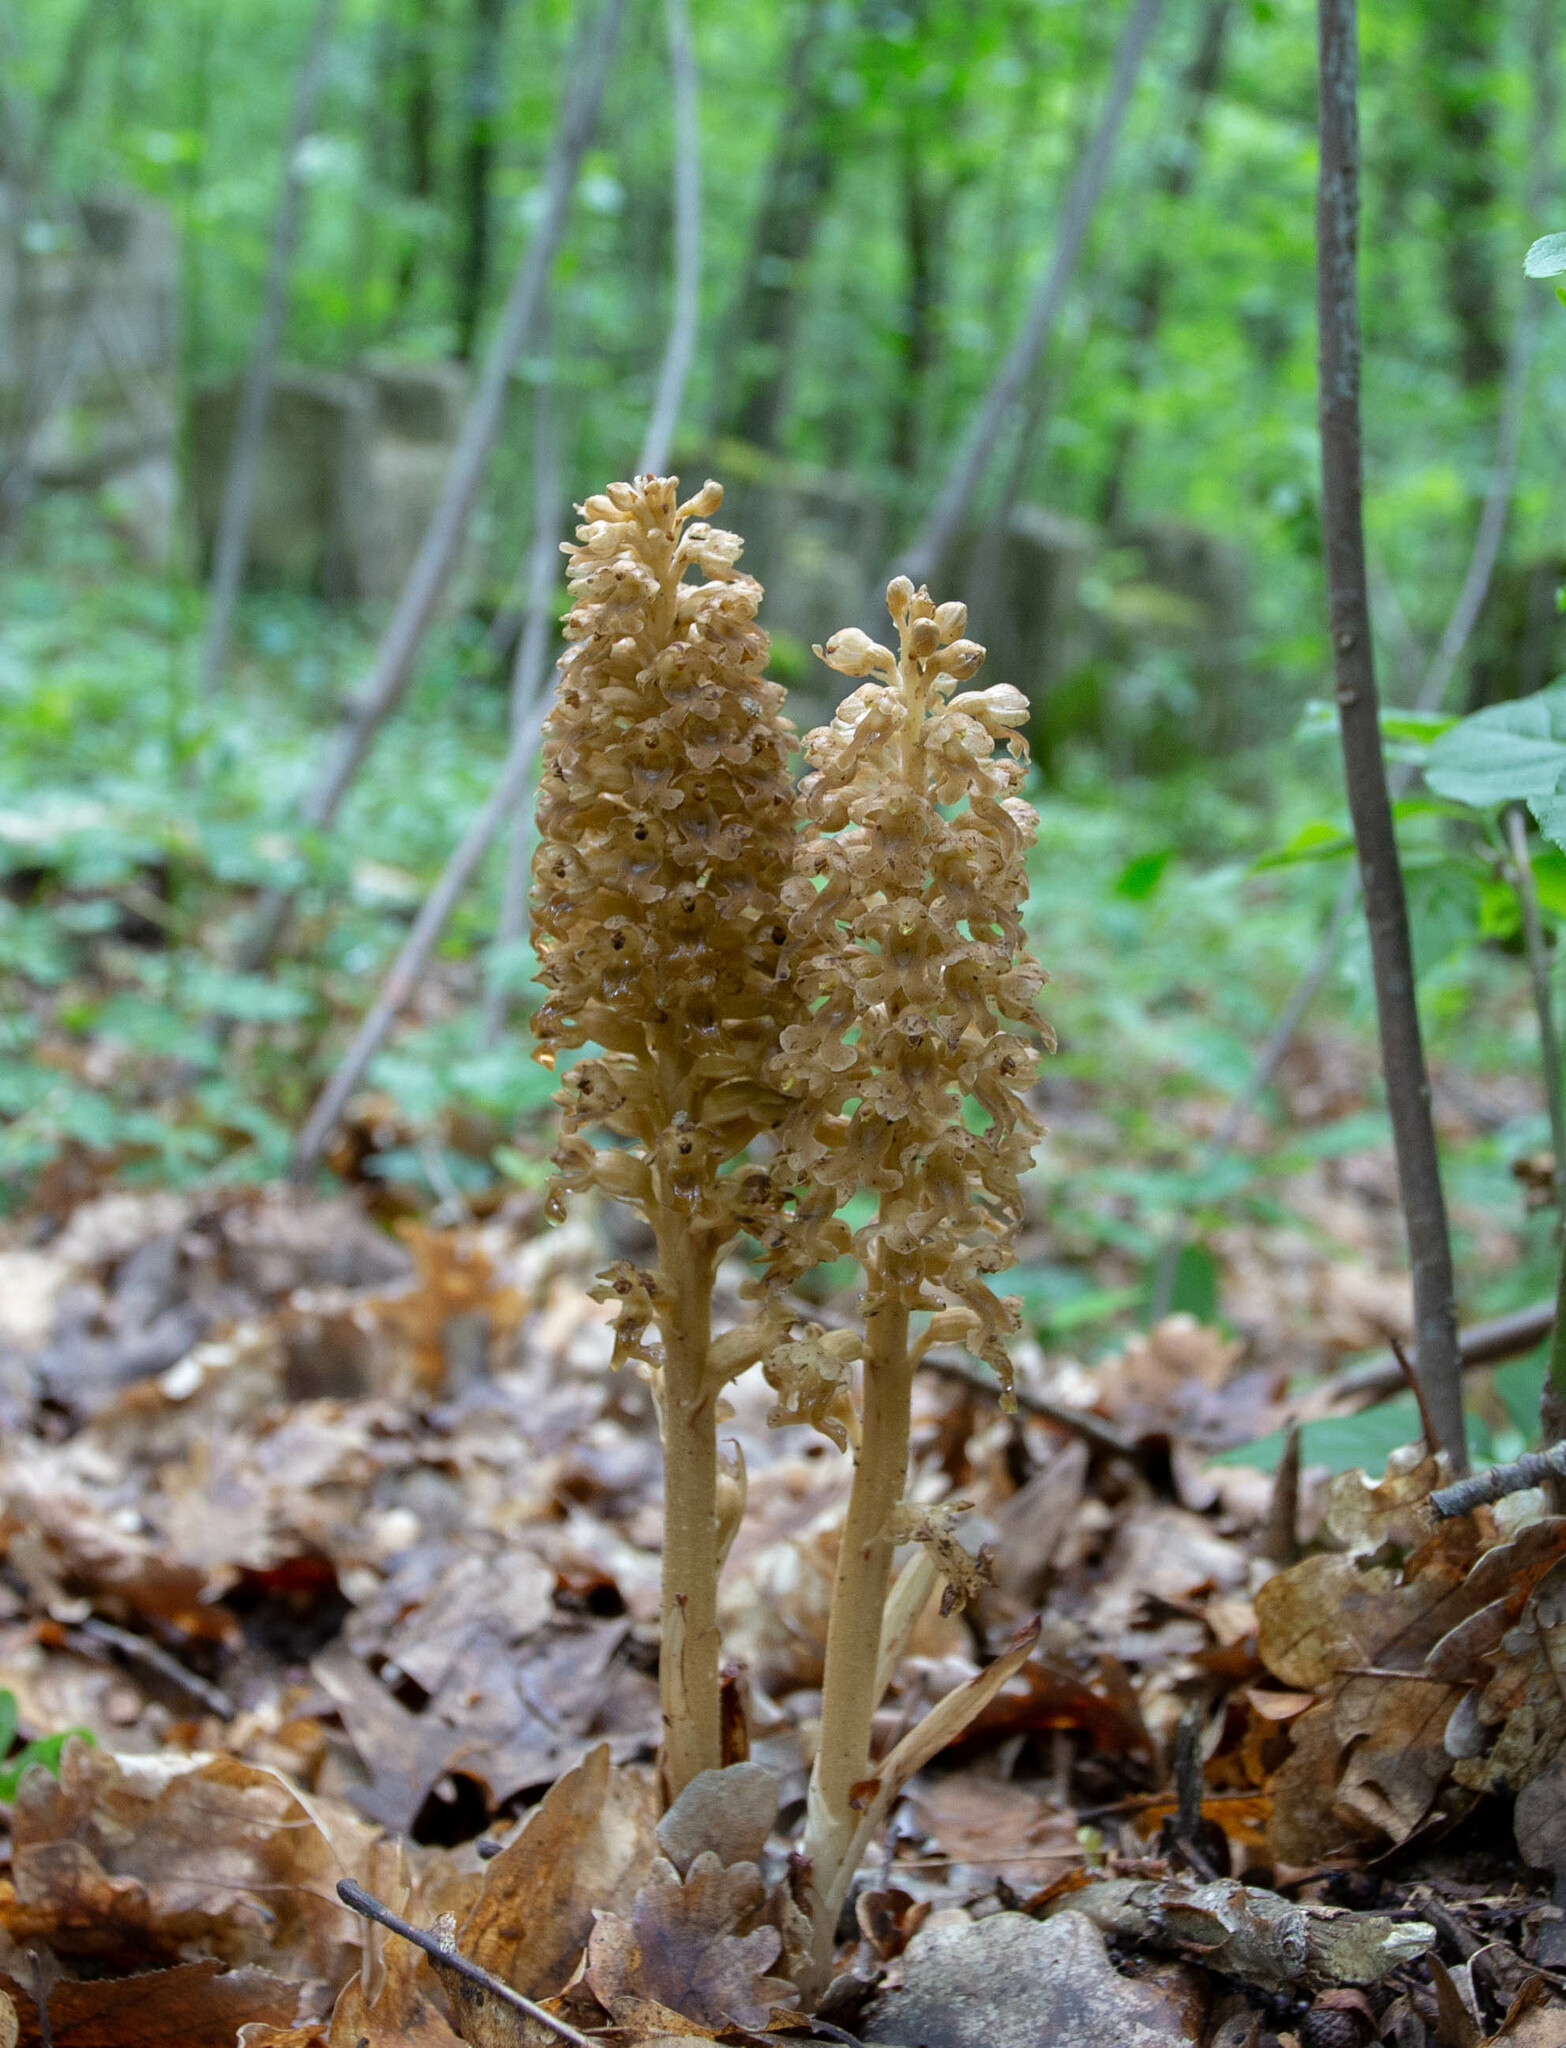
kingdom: Plantae
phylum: Tracheophyta
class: Liliopsida
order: Asparagales
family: Orchidaceae
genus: Neottia
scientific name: Neottia nidus-avis
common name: Bird's-nest orchid
